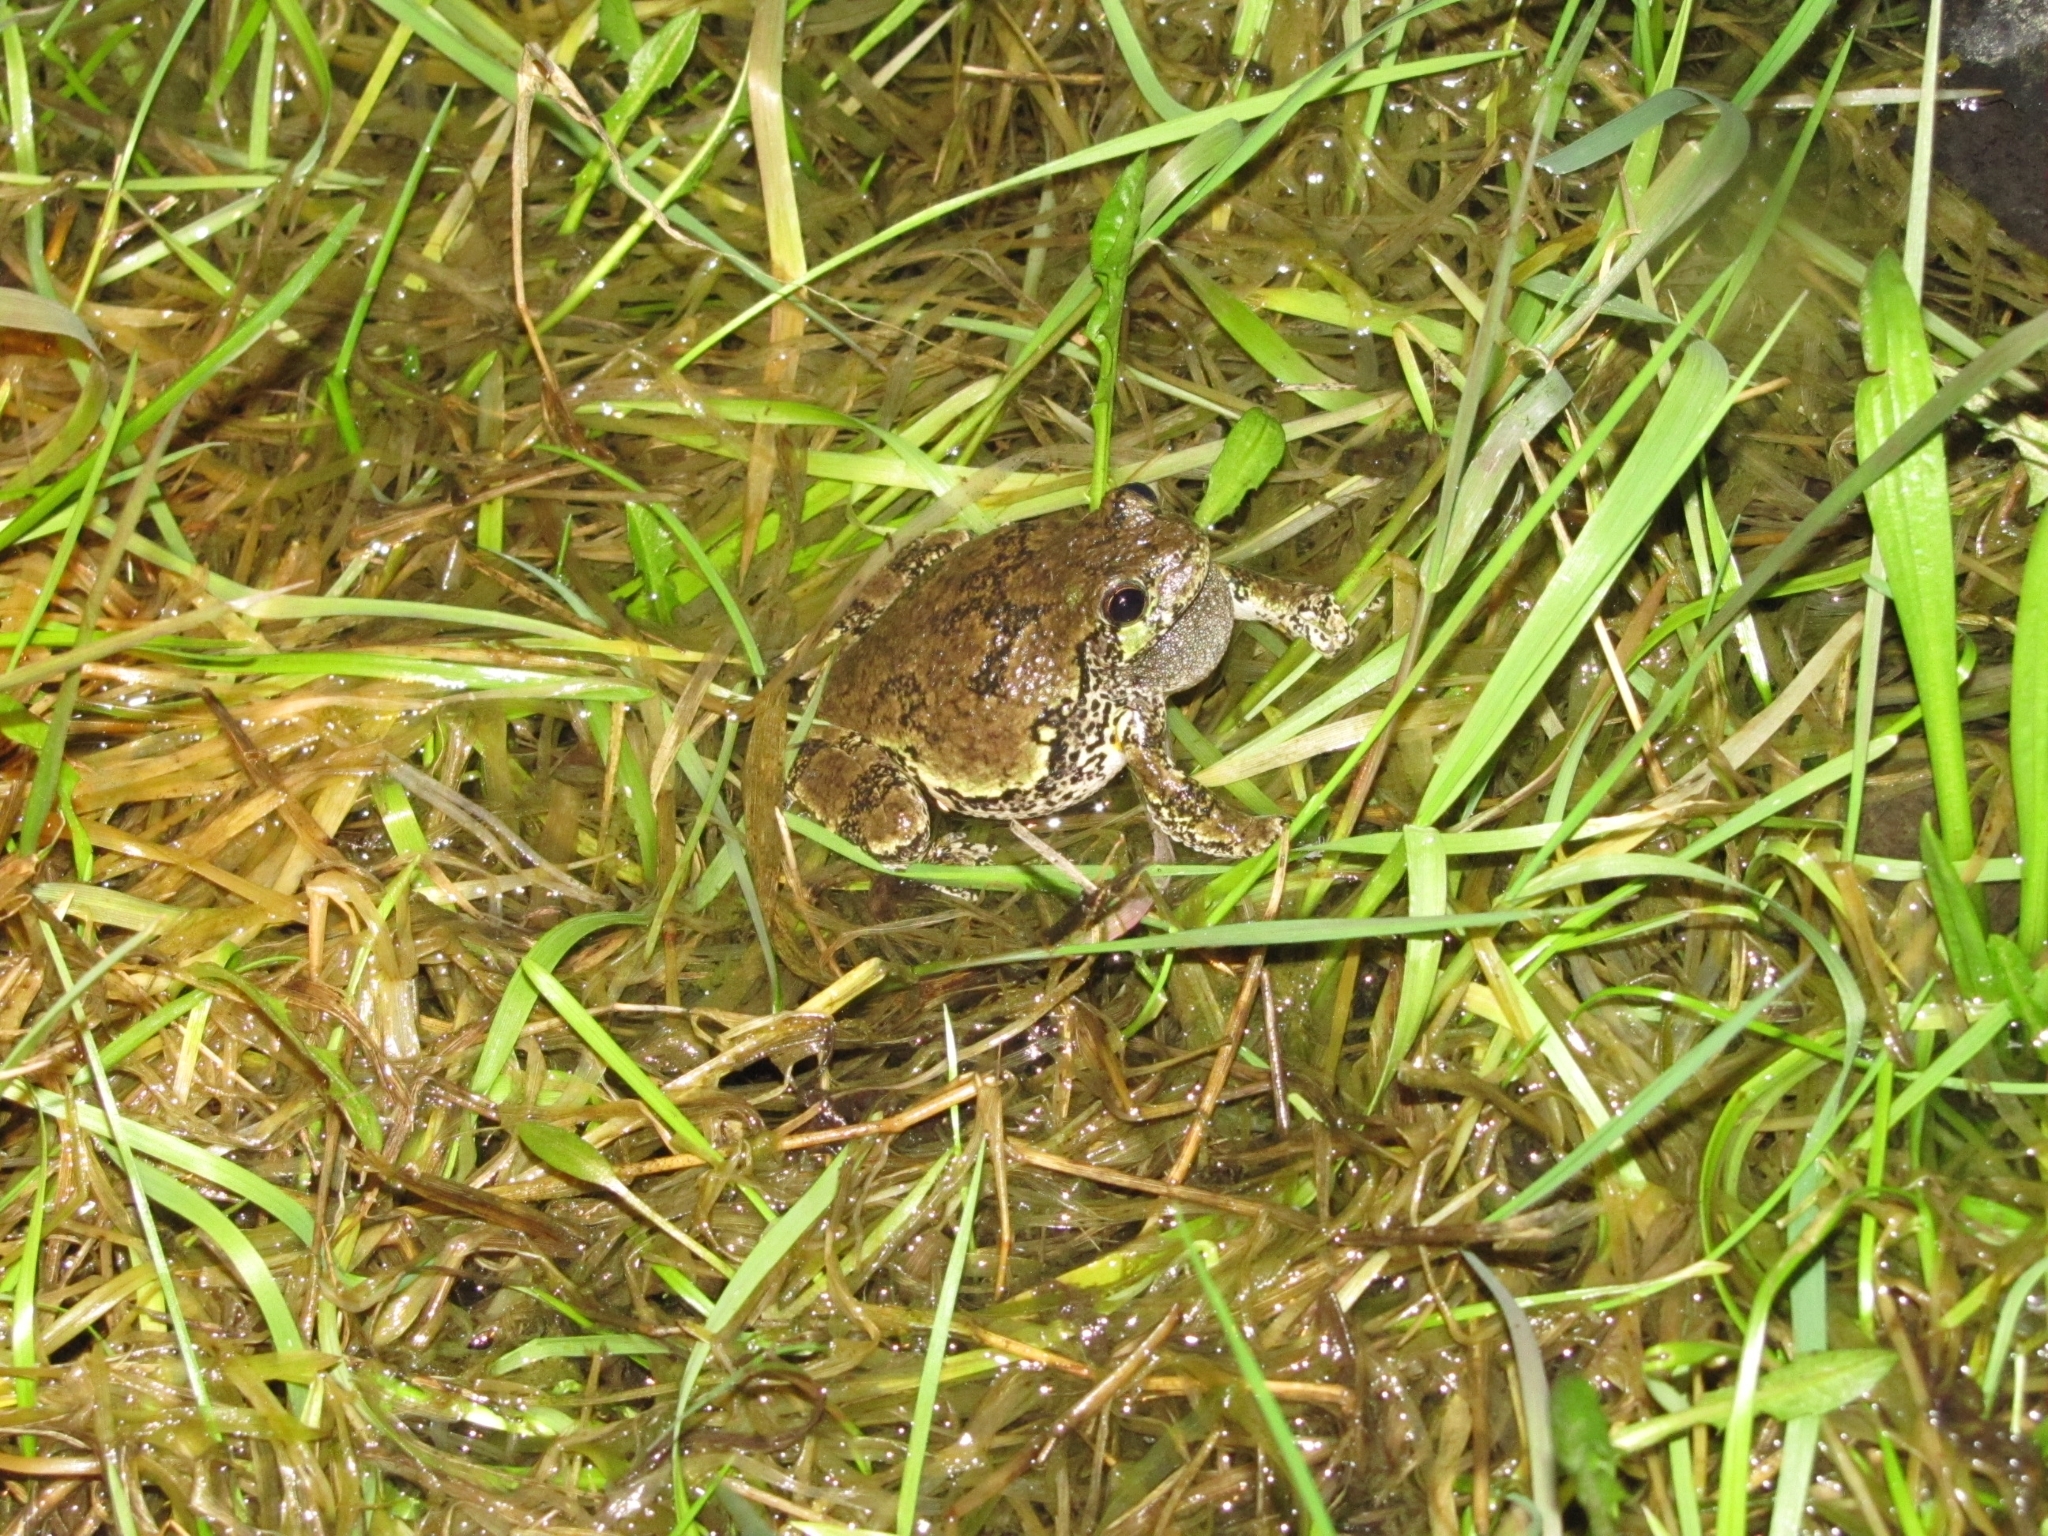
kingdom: Animalia
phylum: Chordata
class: Amphibia
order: Anura
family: Hylidae
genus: Dryophytes
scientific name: Dryophytes versicolor
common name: Gray treefrog
